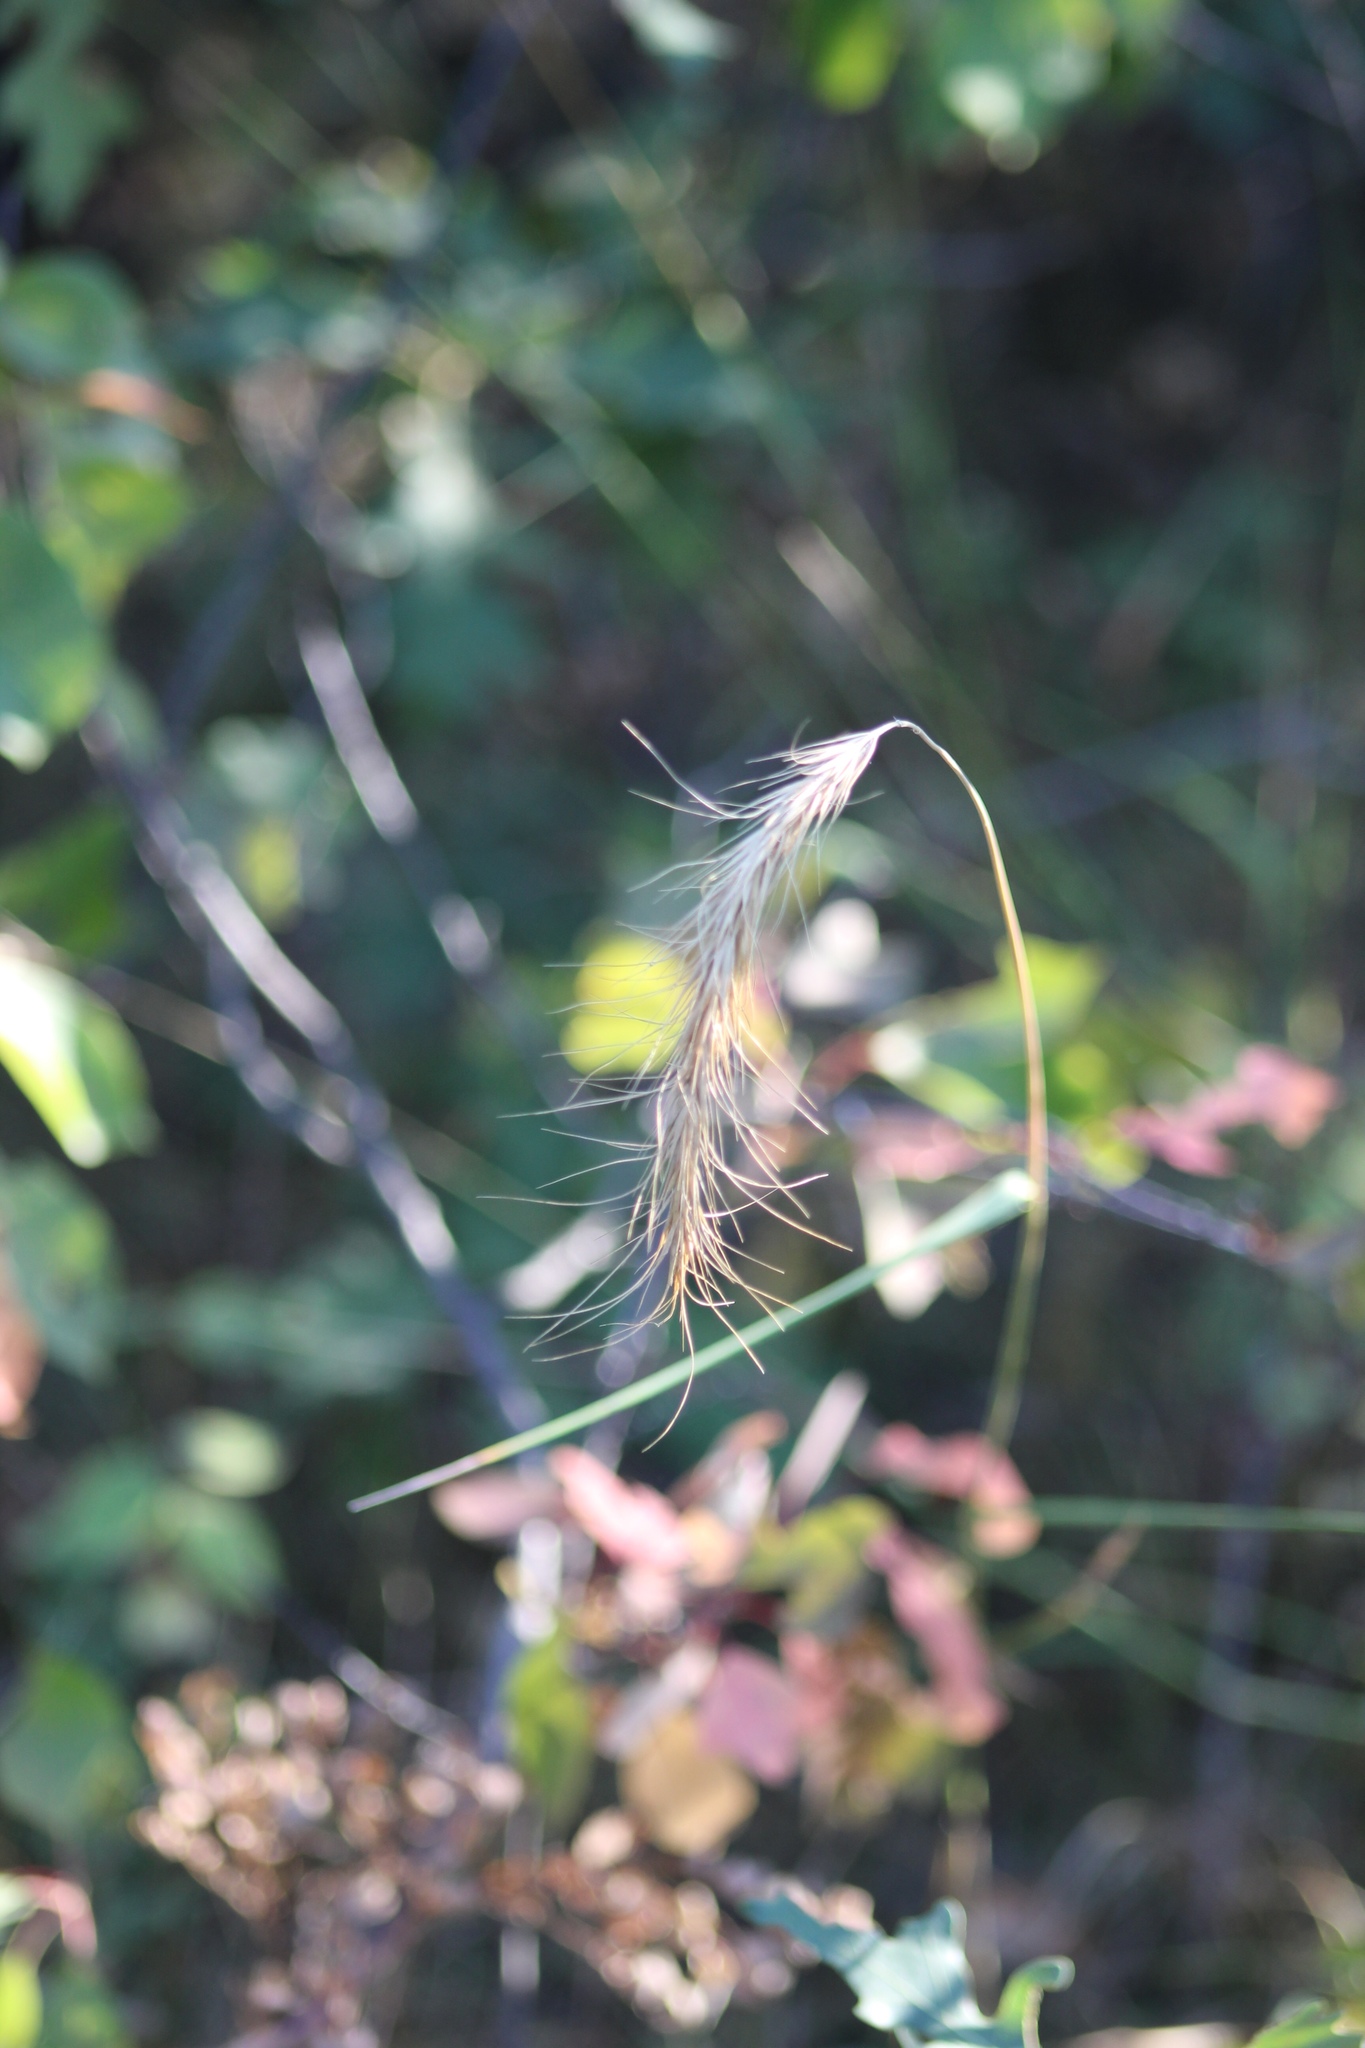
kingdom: Plantae
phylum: Tracheophyta
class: Liliopsida
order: Poales
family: Poaceae
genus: Elymus
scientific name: Elymus canadensis
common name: Canada wild rye
